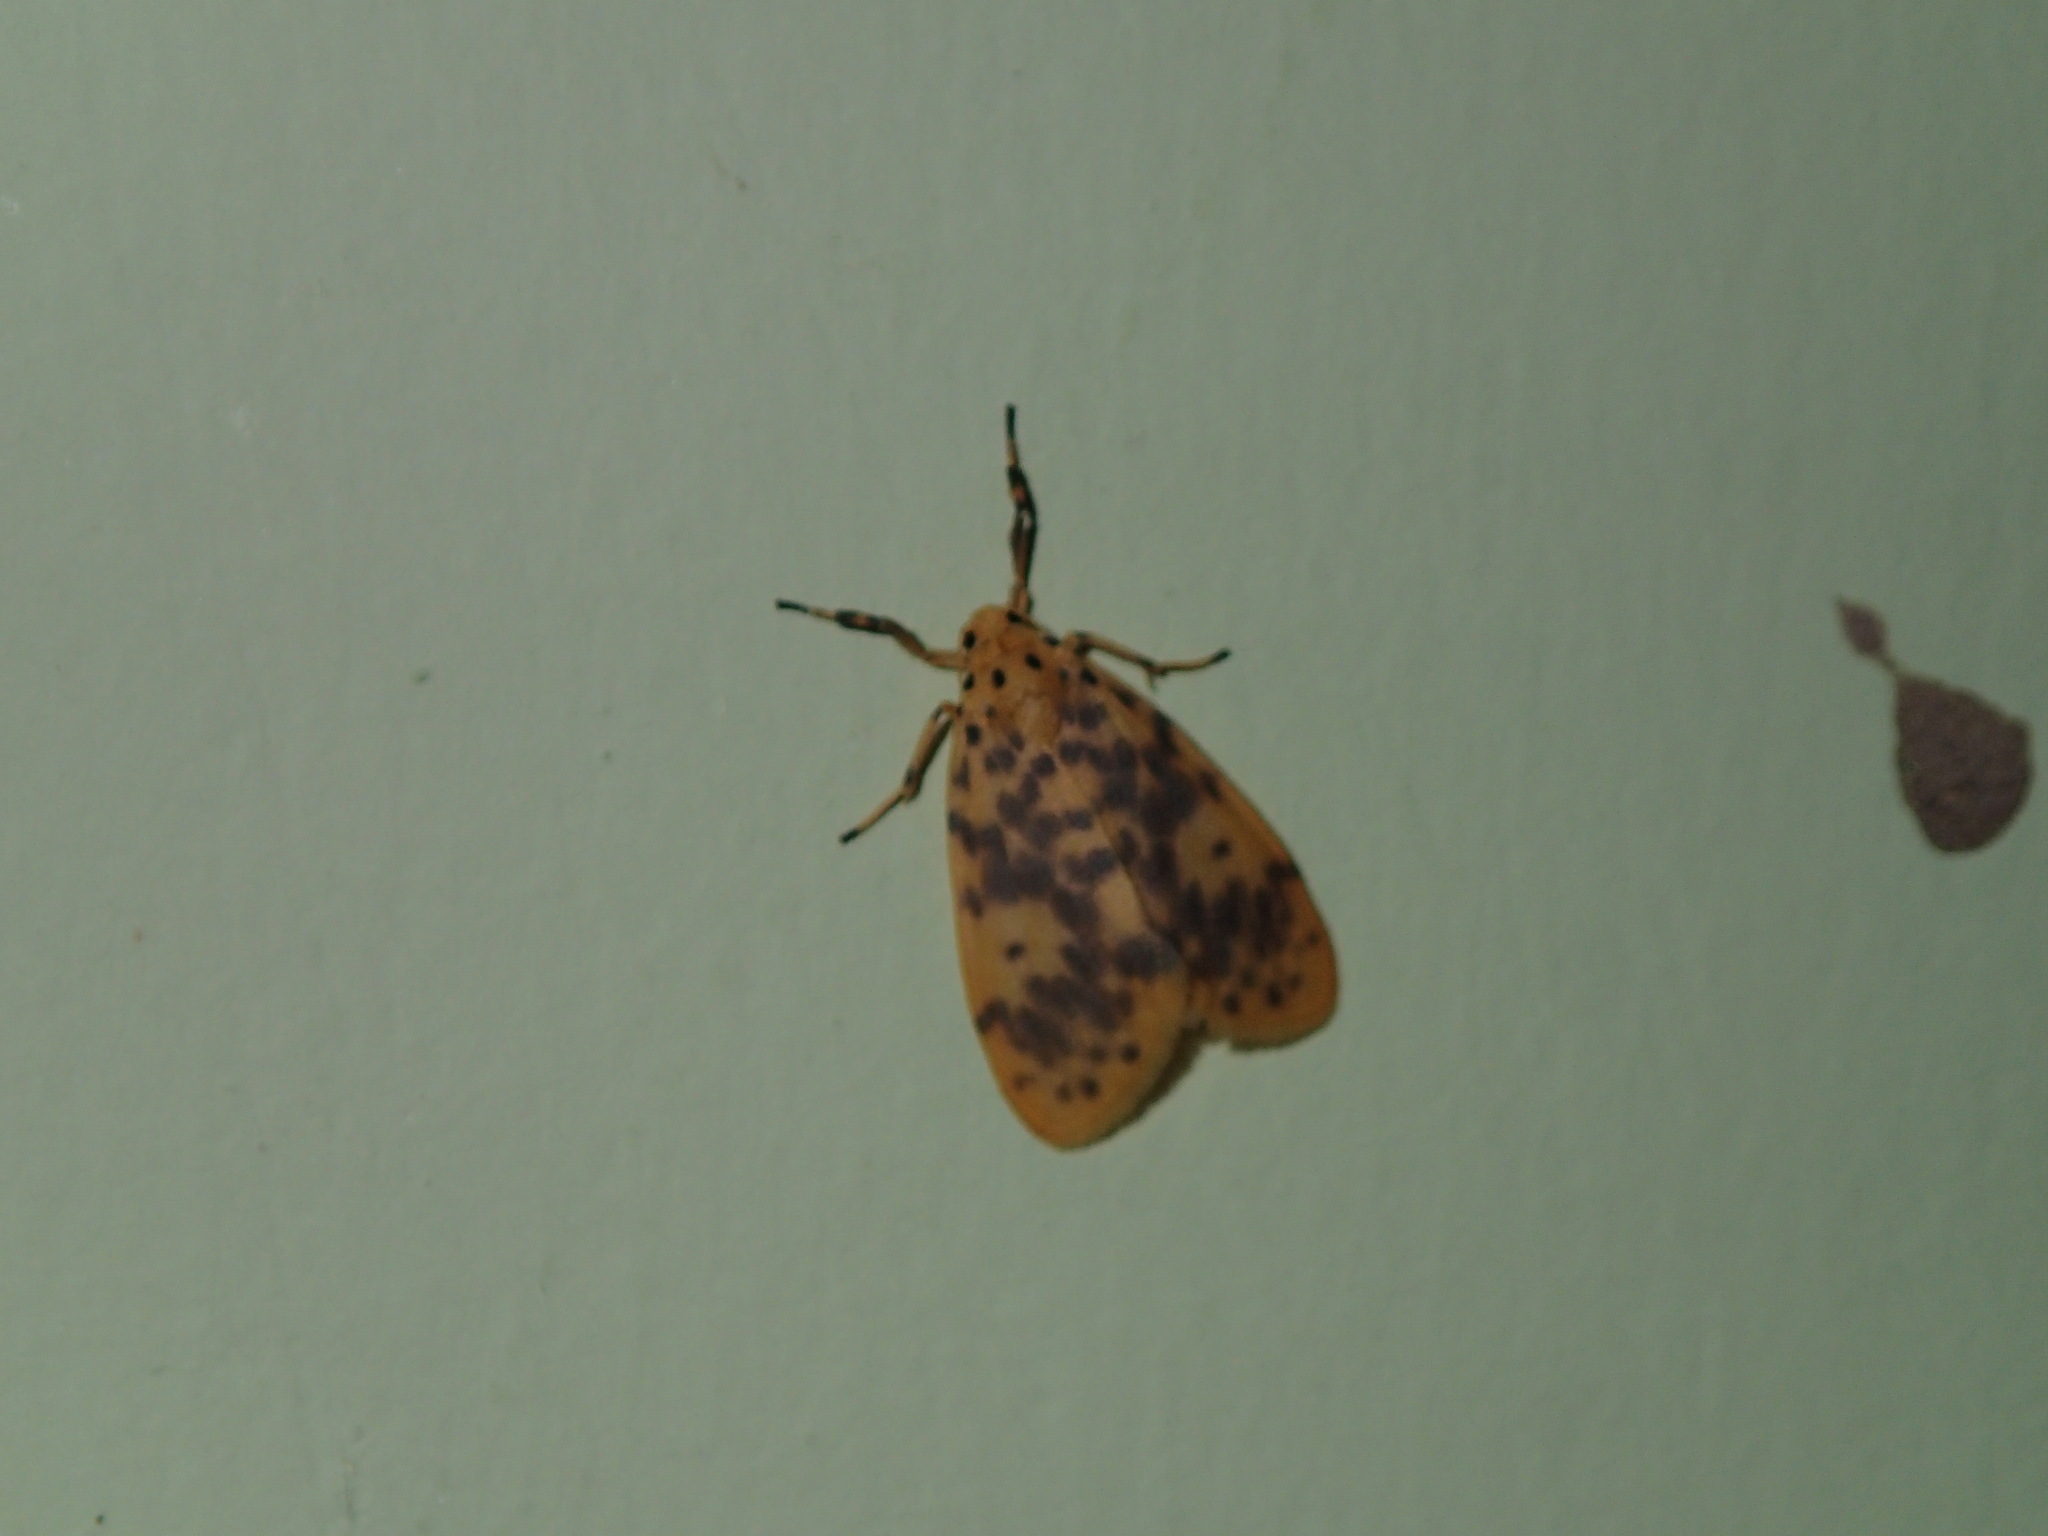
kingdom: Animalia
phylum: Arthropoda
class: Insecta
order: Lepidoptera
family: Erebidae
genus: Miltochrista
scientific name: Miltochrista obsoleta
